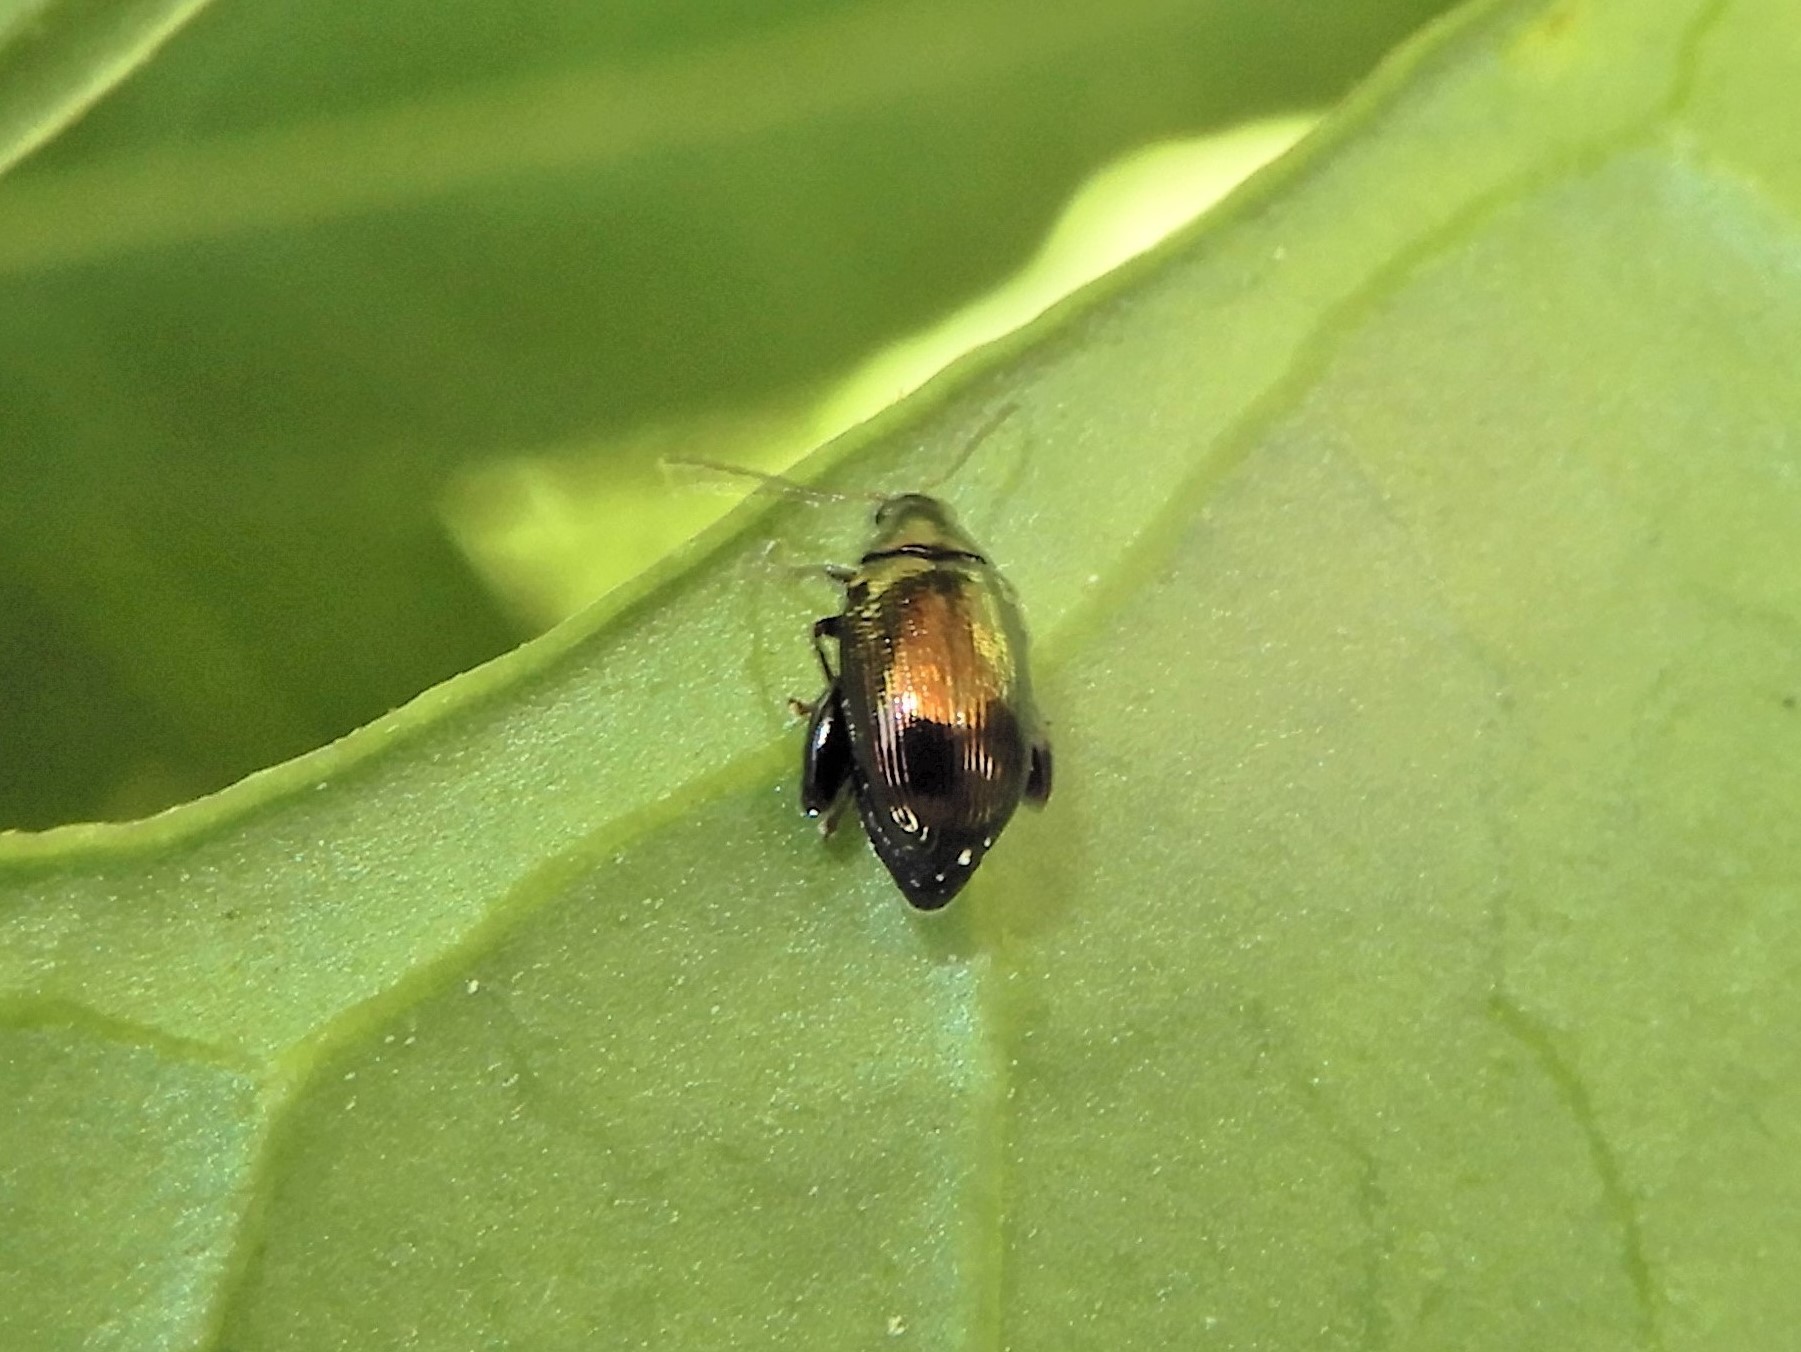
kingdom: Animalia
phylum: Arthropoda
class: Insecta
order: Coleoptera
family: Chrysomelidae
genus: Psylliodes
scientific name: Psylliodes brettinghami
